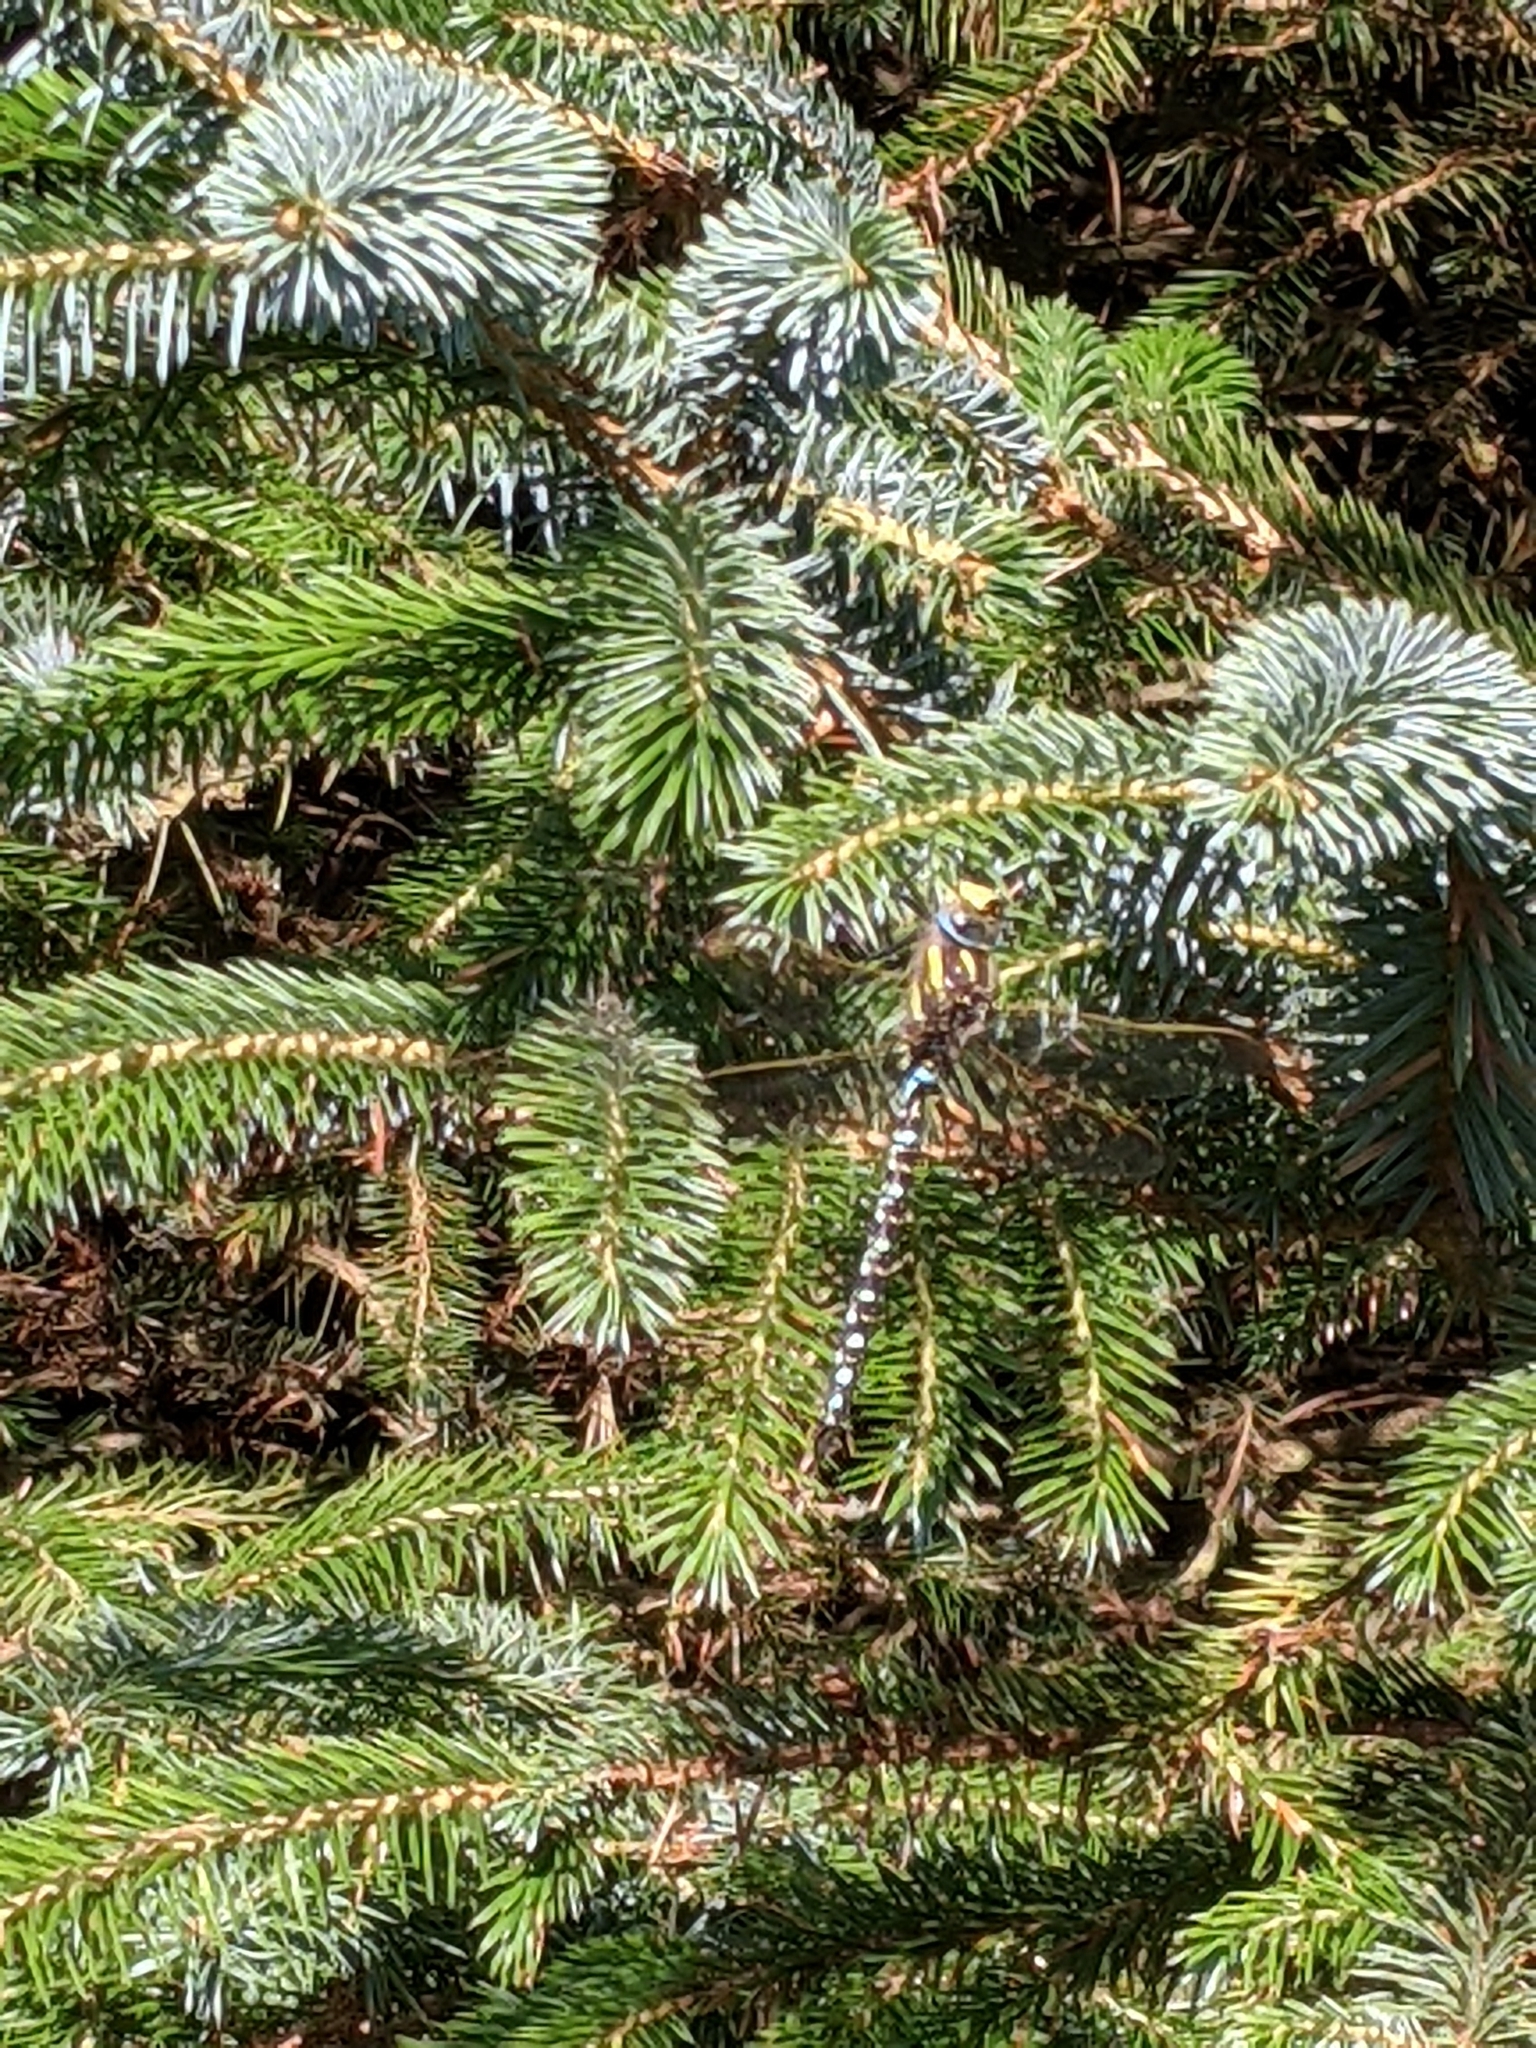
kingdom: Animalia
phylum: Arthropoda
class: Insecta
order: Odonata
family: Aeshnidae
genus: Aeshna
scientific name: Aeshna cyanea
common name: Southern hawker
